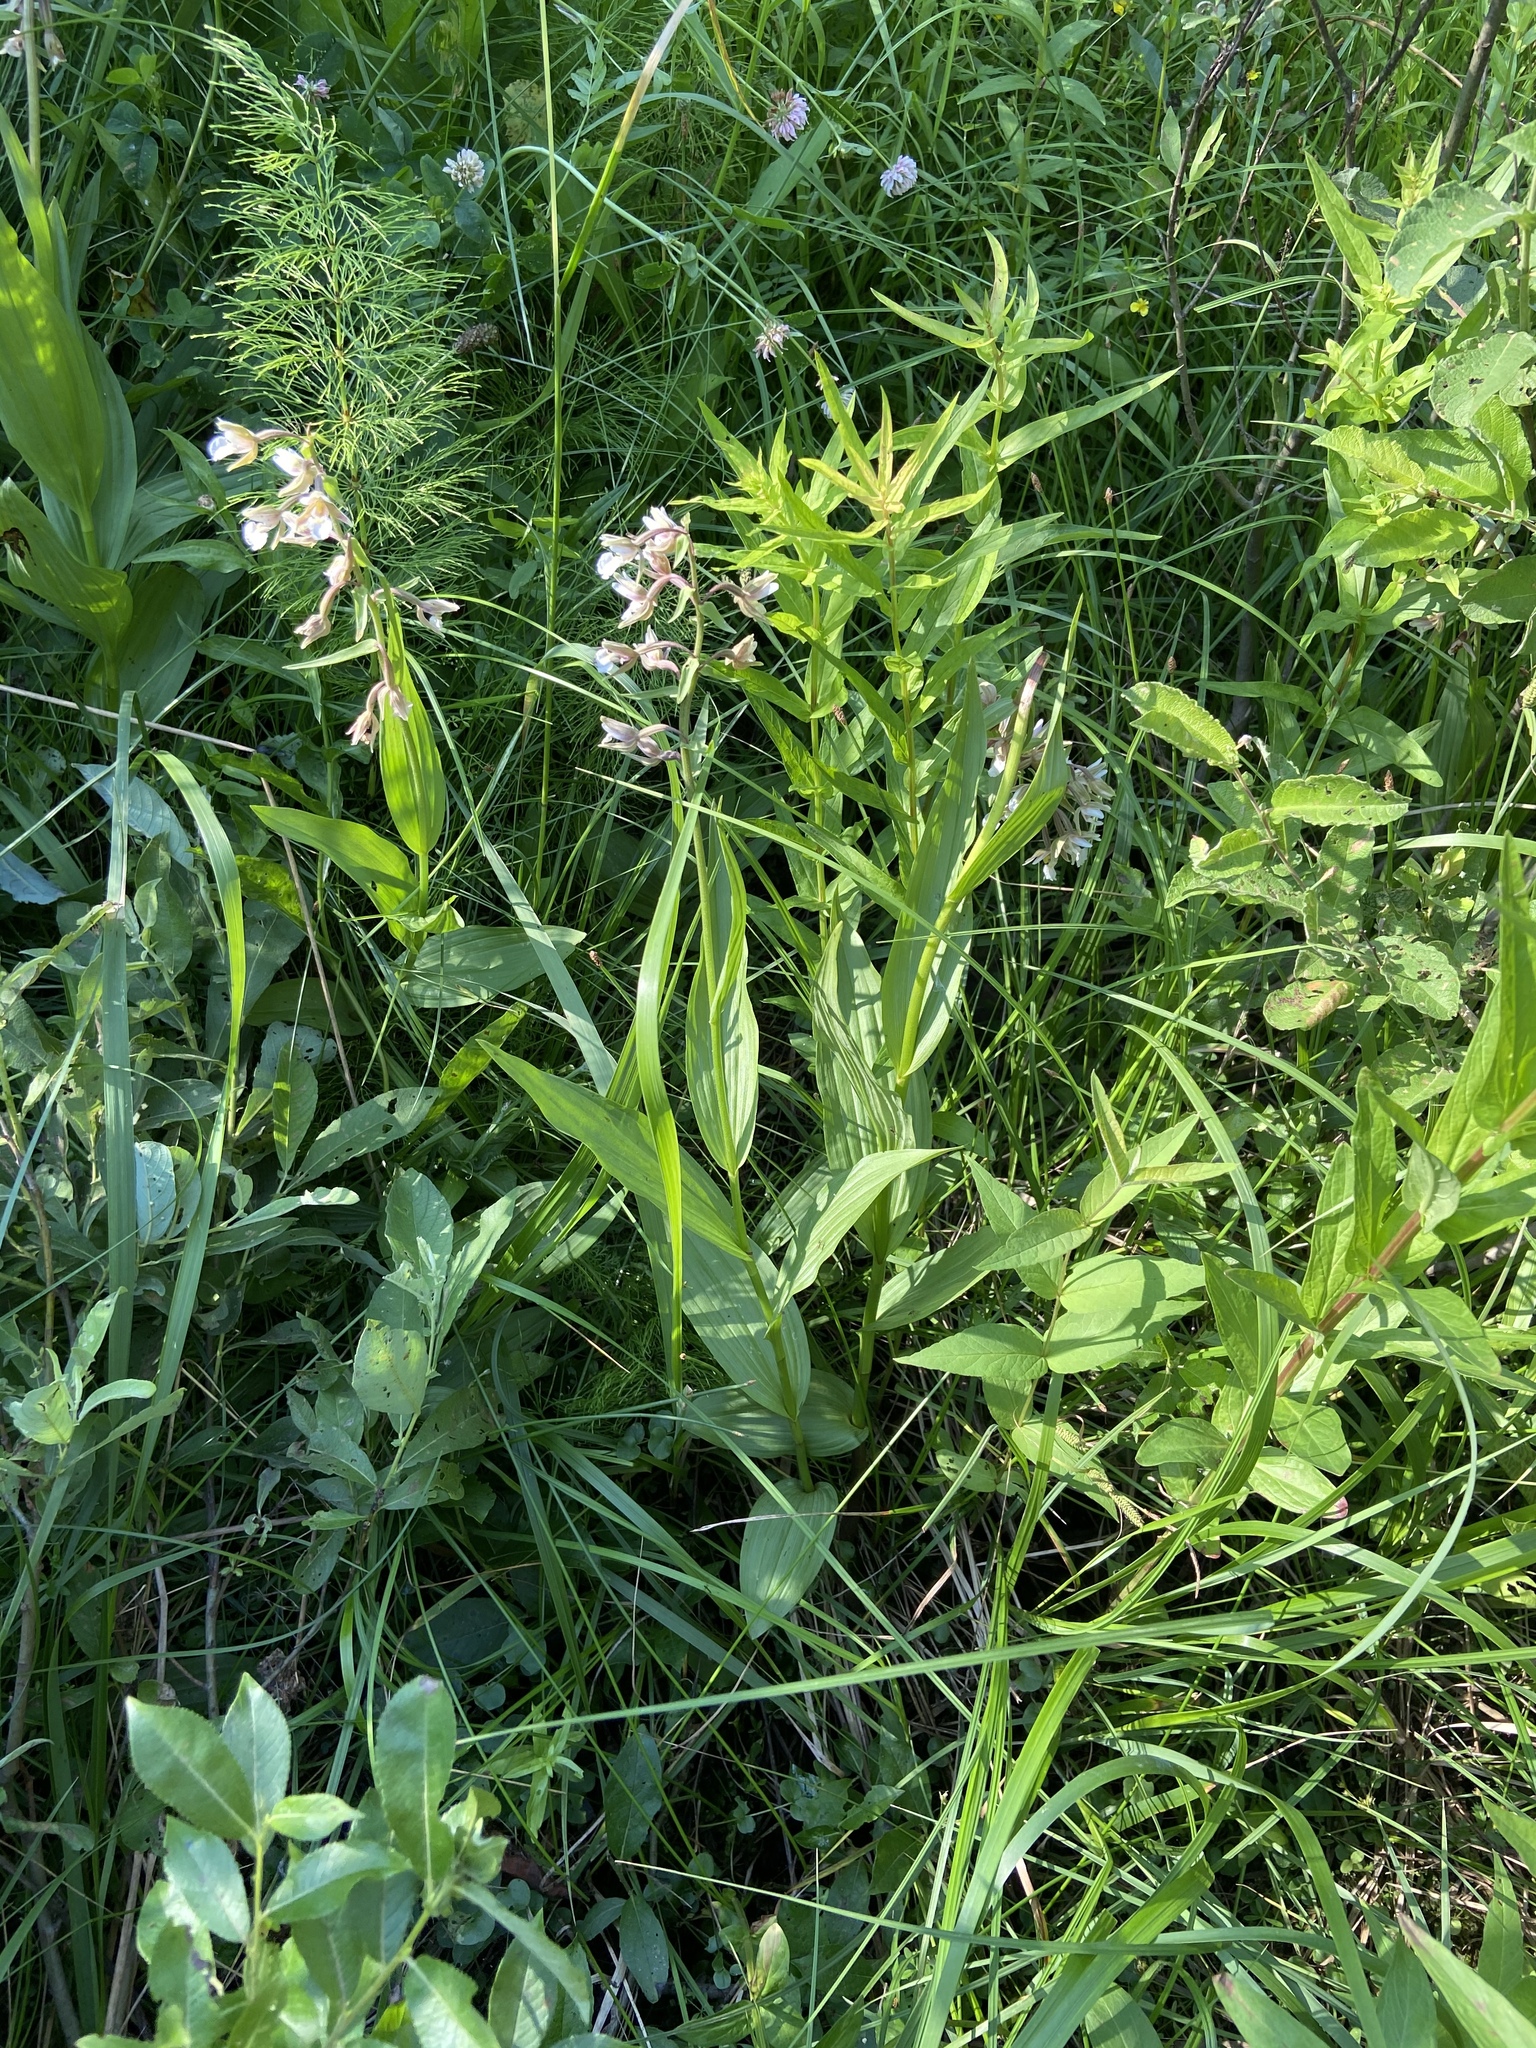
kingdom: Plantae
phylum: Tracheophyta
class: Liliopsida
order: Asparagales
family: Orchidaceae
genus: Epipactis
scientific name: Epipactis palustris
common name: Marsh helleborine
